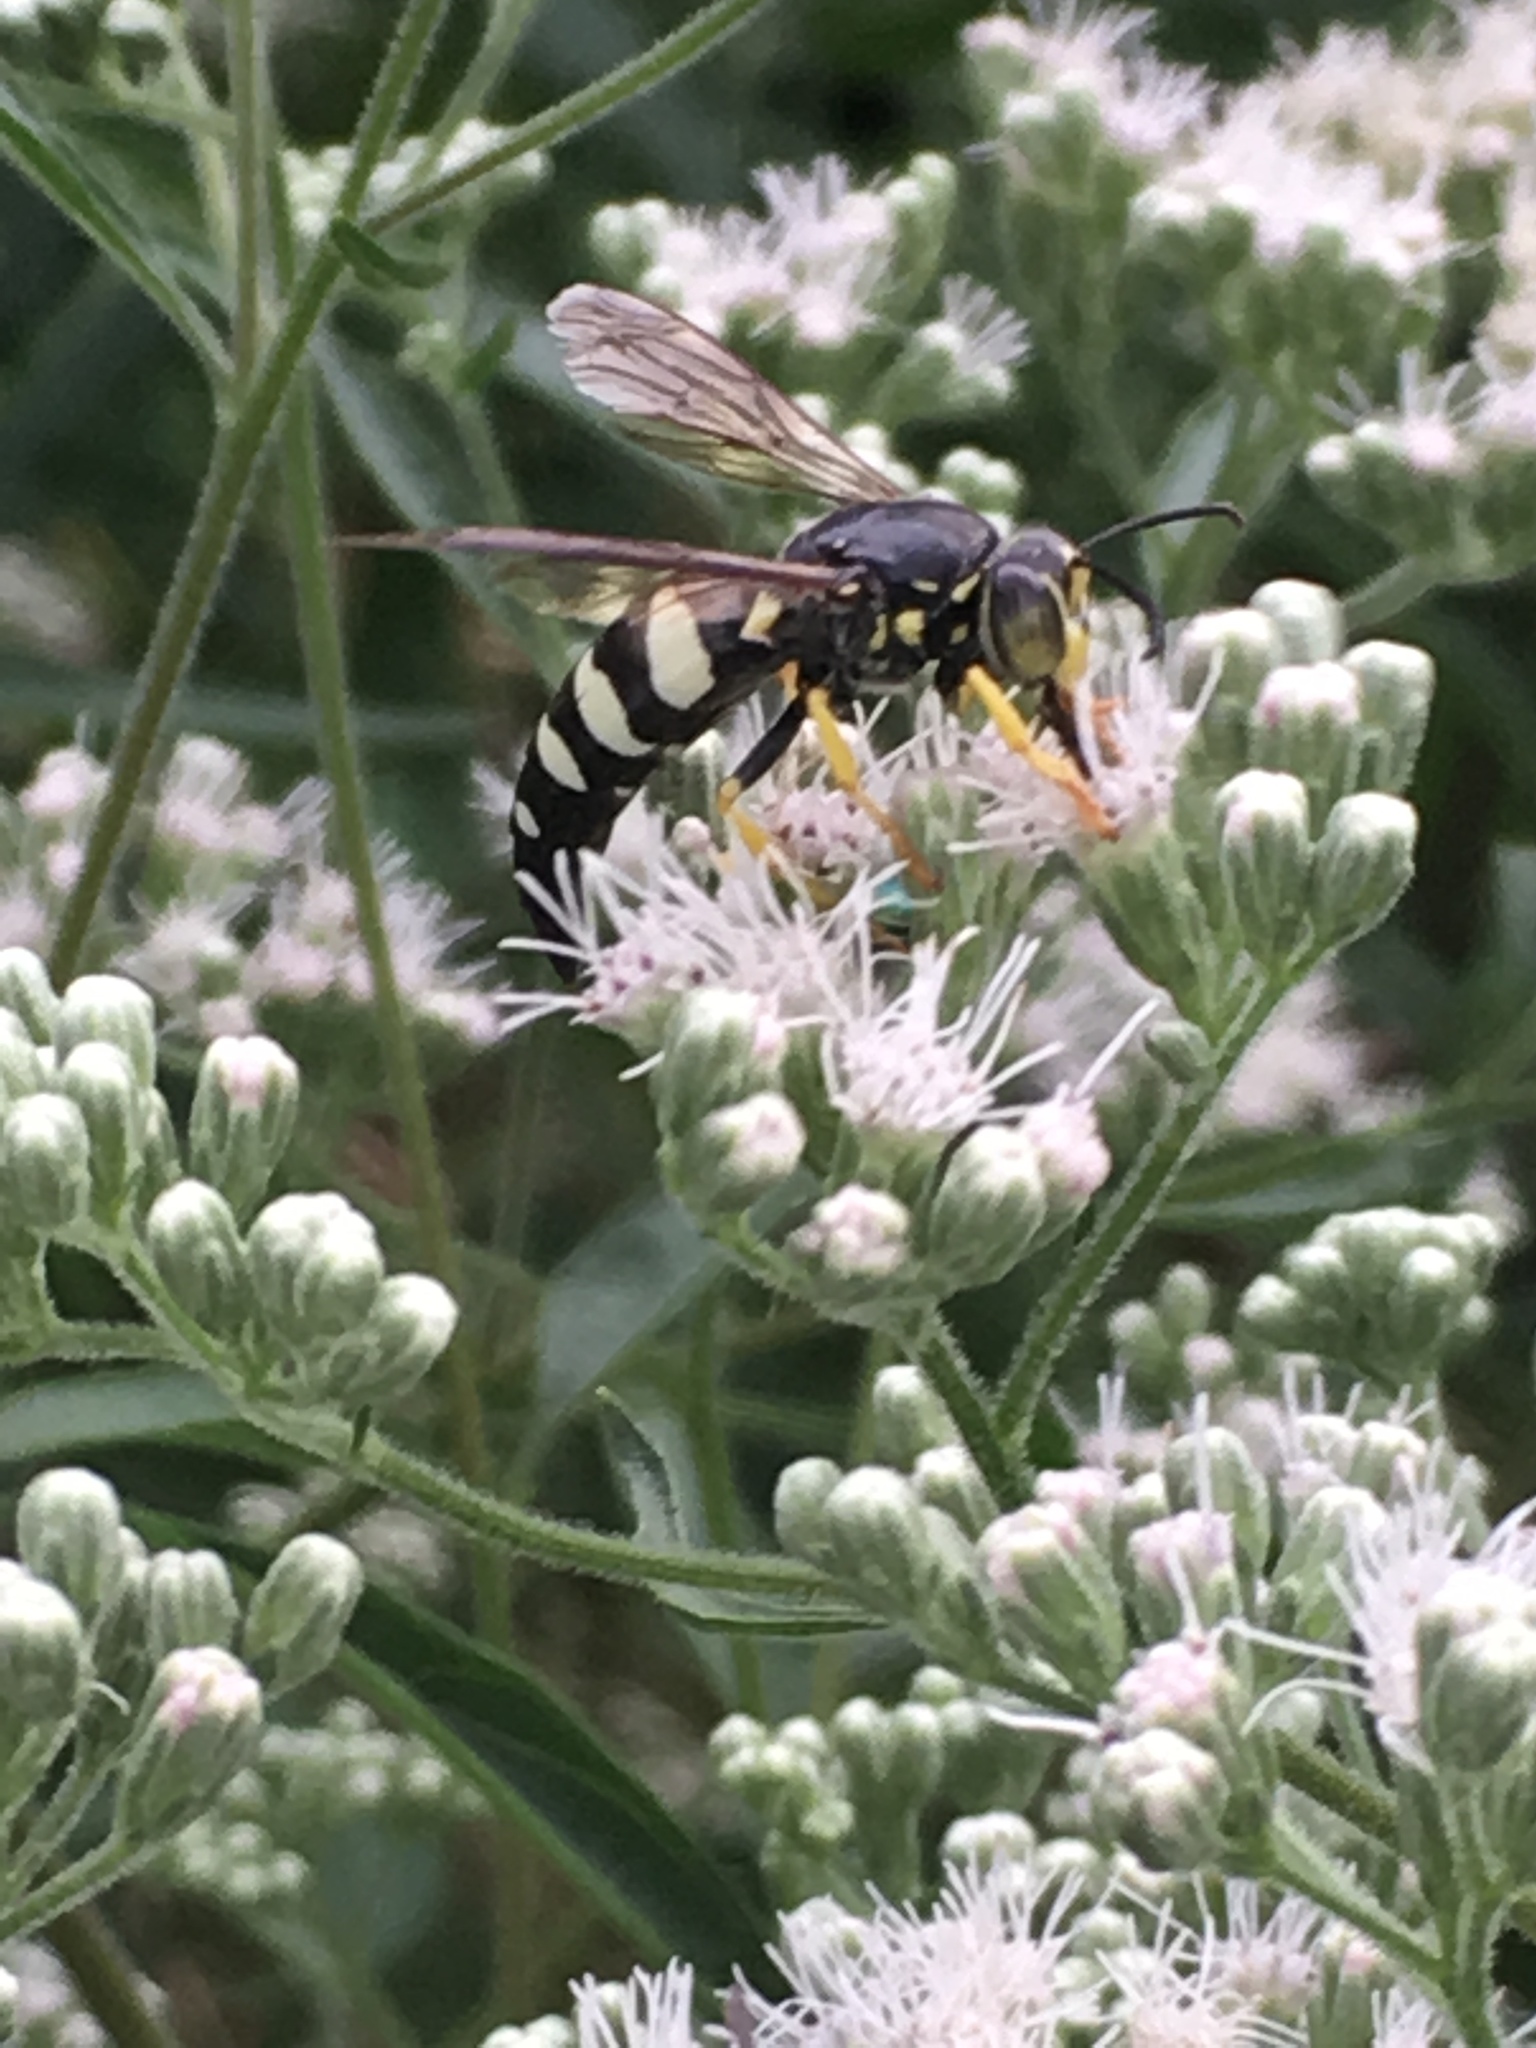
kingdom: Animalia
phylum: Arthropoda
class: Insecta
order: Hymenoptera
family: Crabronidae
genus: Bicyrtes
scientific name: Bicyrtes quadrifasciatus
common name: Four-banded stink bug hunter wasp
